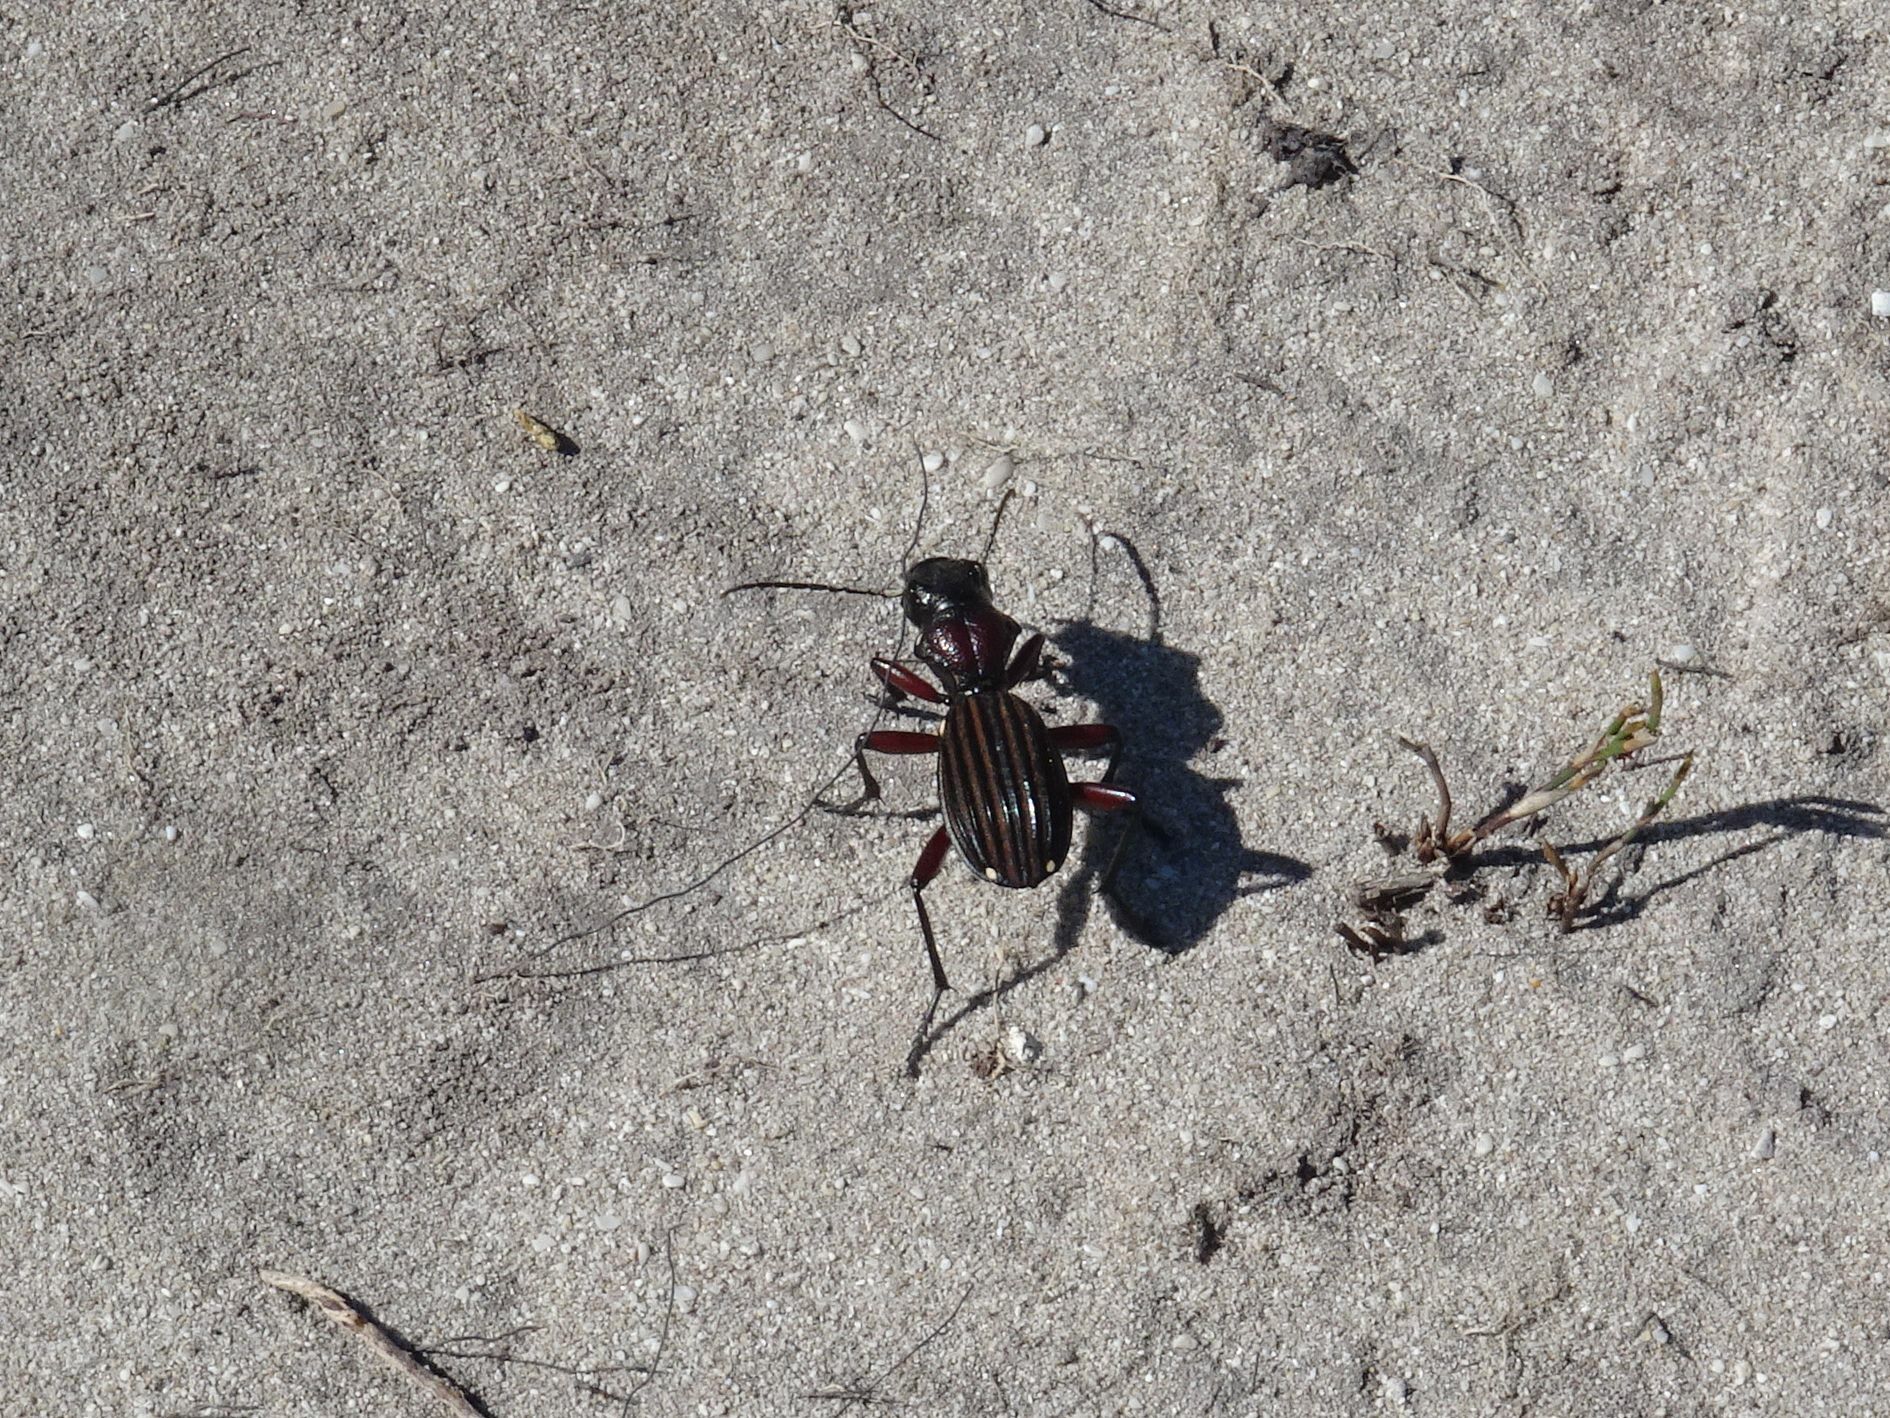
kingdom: Animalia
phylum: Arthropoda
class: Insecta
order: Coleoptera
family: Carabidae
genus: Anthia
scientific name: Anthia decemguttata
